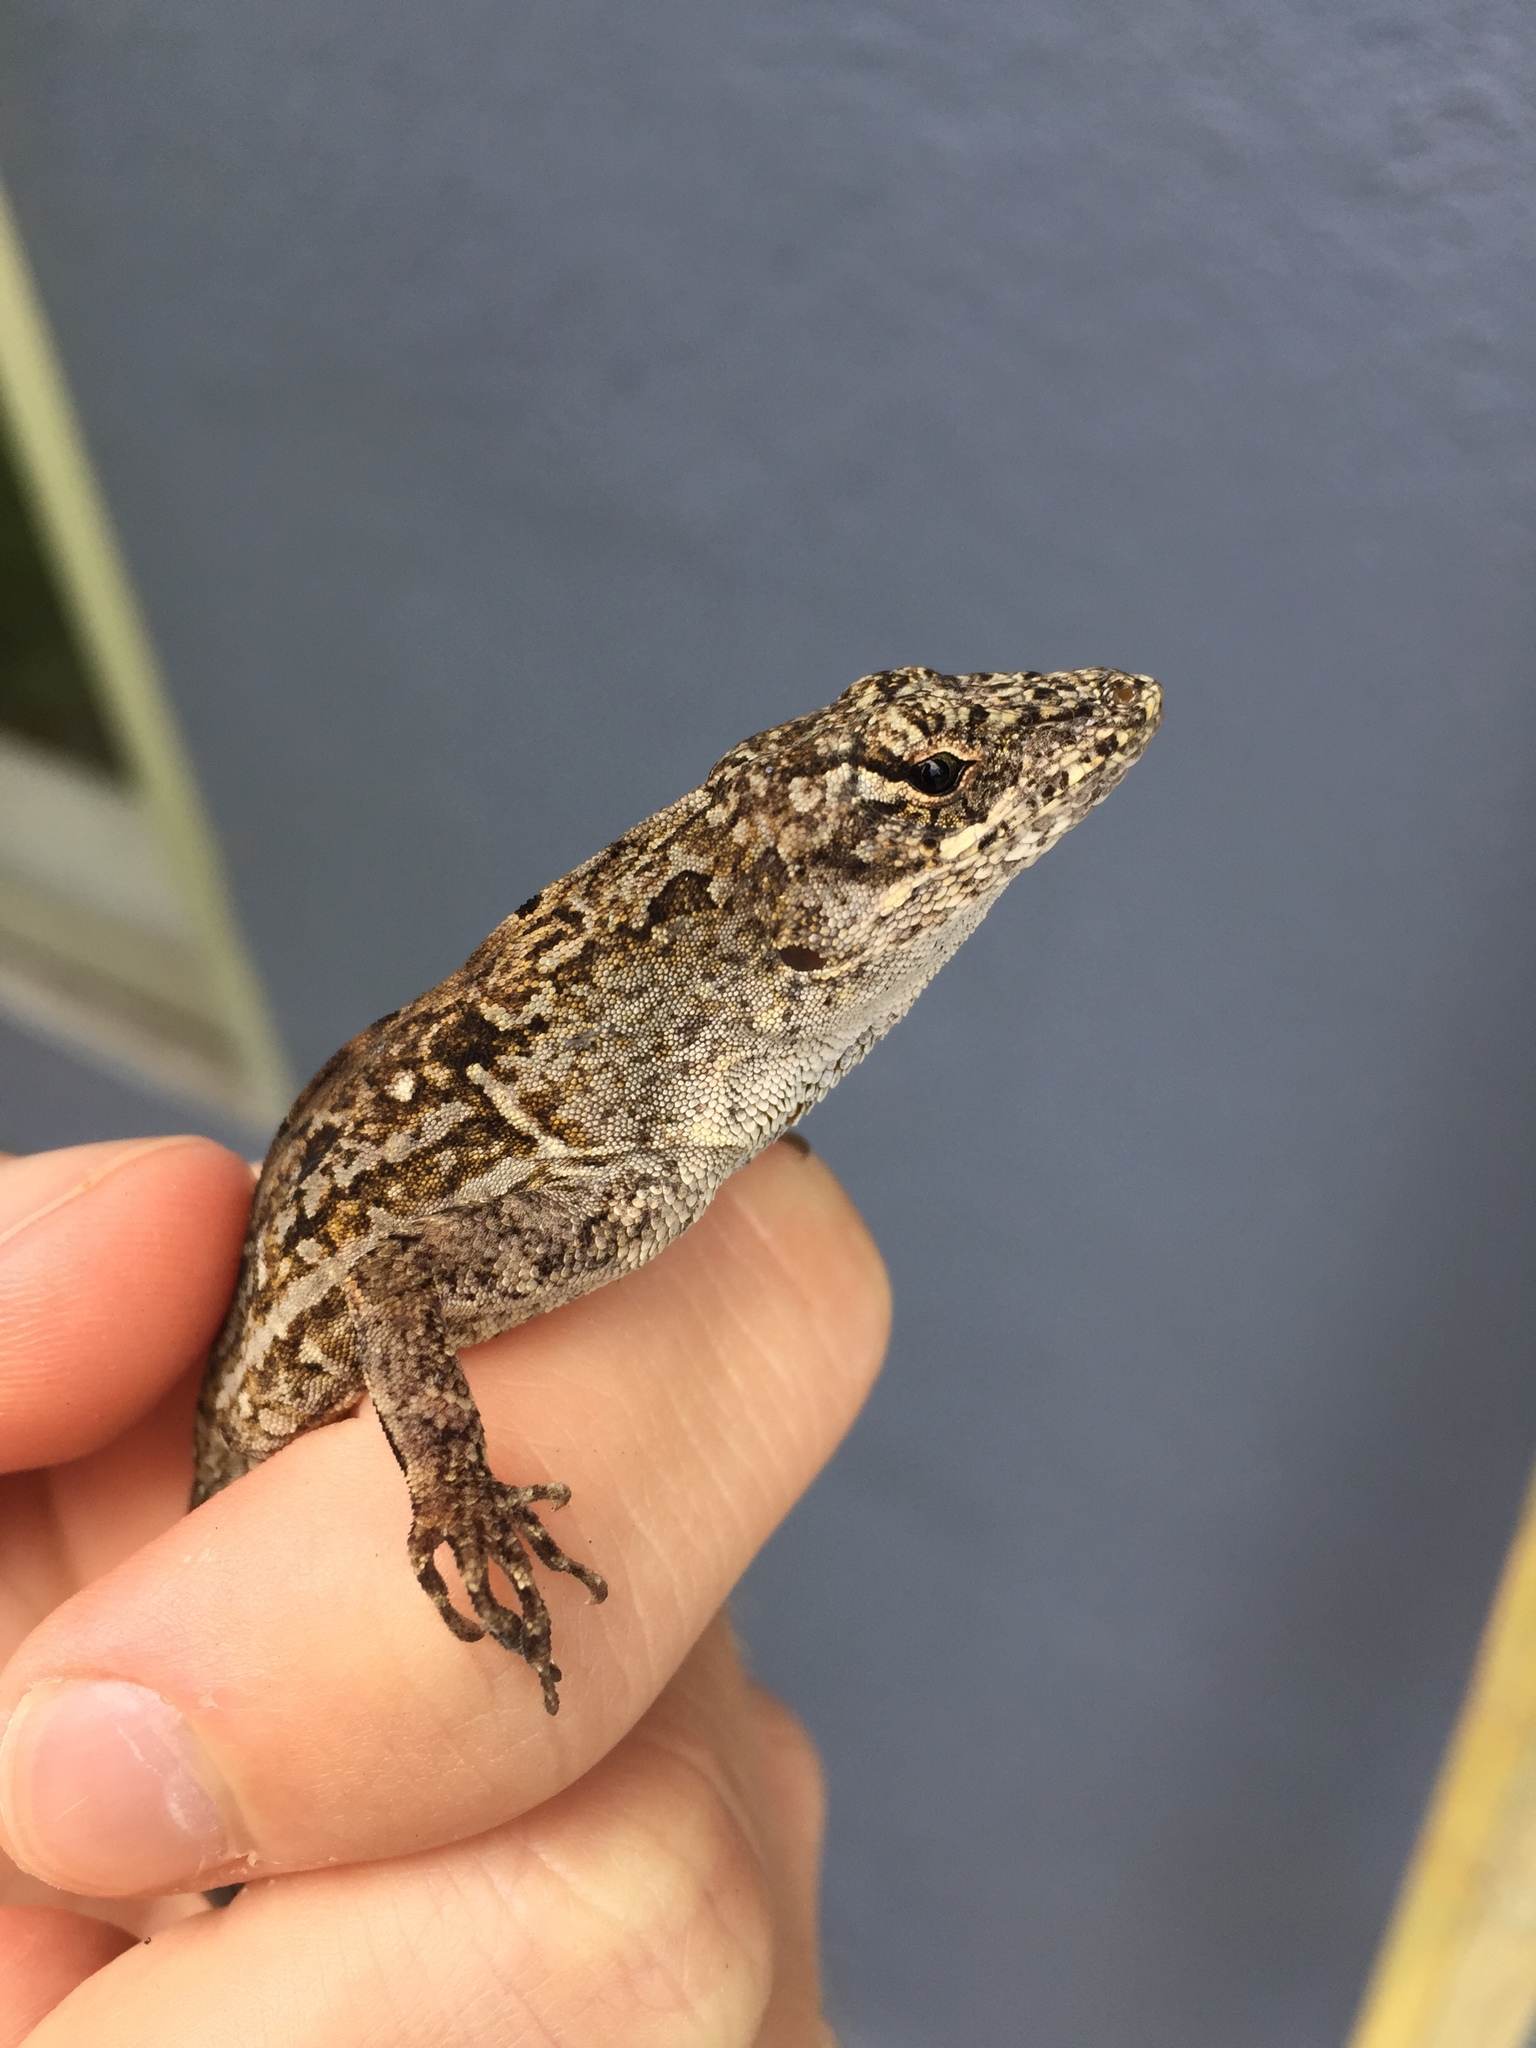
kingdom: Animalia
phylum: Chordata
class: Squamata
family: Dactyloidae
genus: Anolis
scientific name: Anolis sagrei
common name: Brown anole
